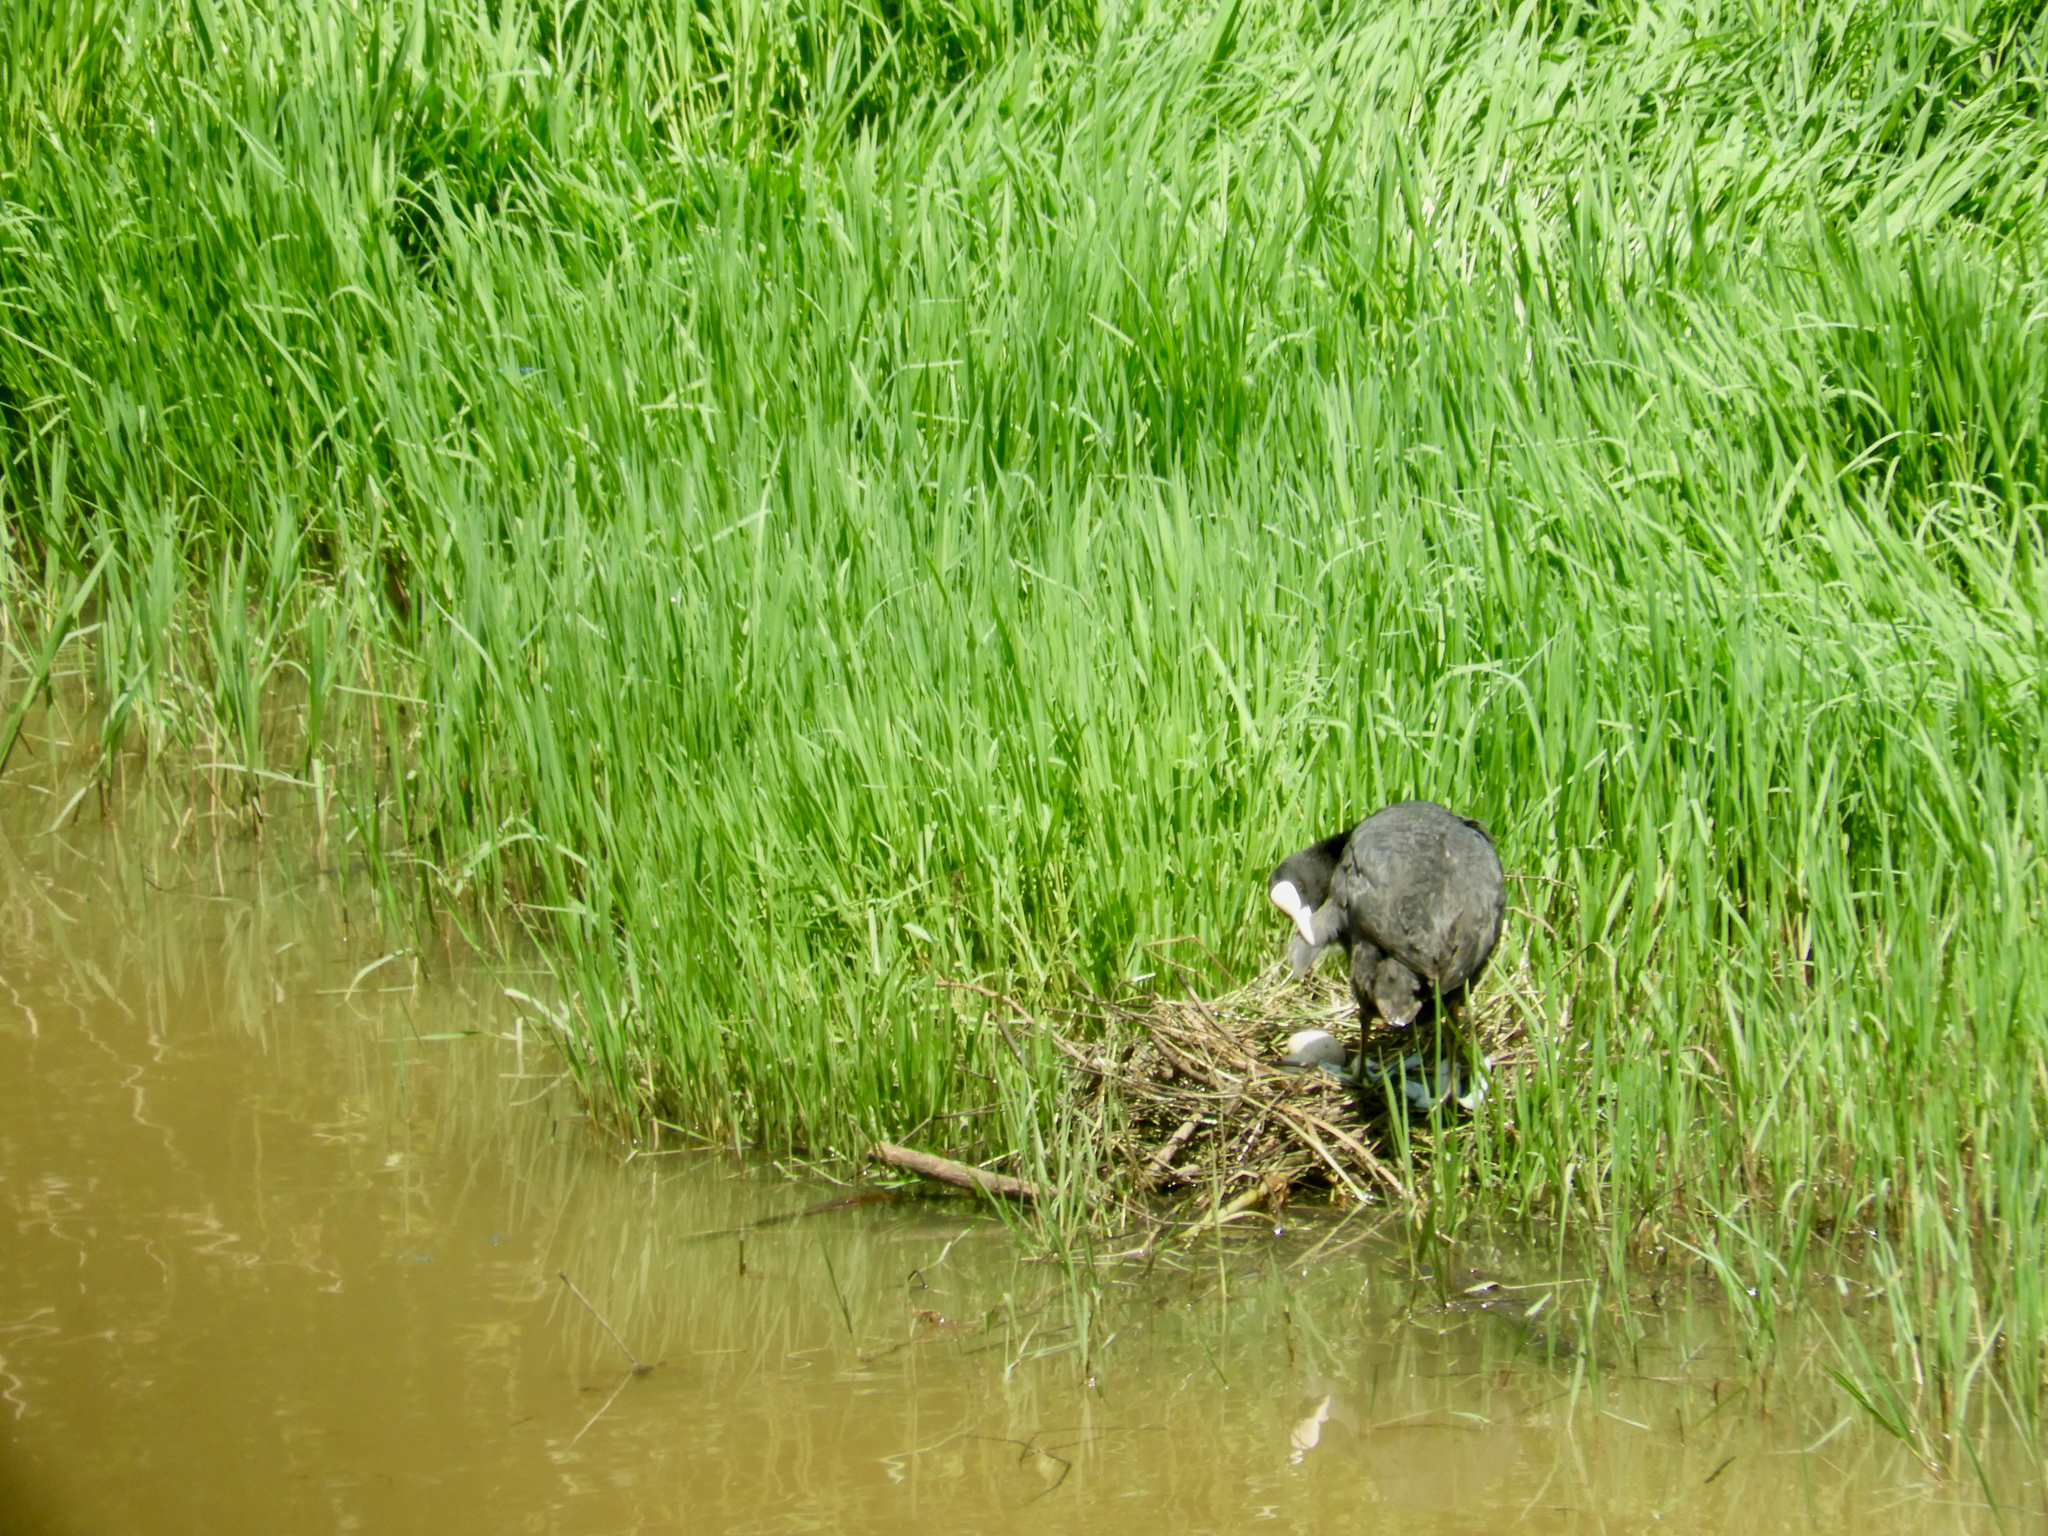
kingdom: Animalia
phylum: Chordata
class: Aves
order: Gruiformes
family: Rallidae
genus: Fulica
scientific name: Fulica atra
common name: Eurasian coot
